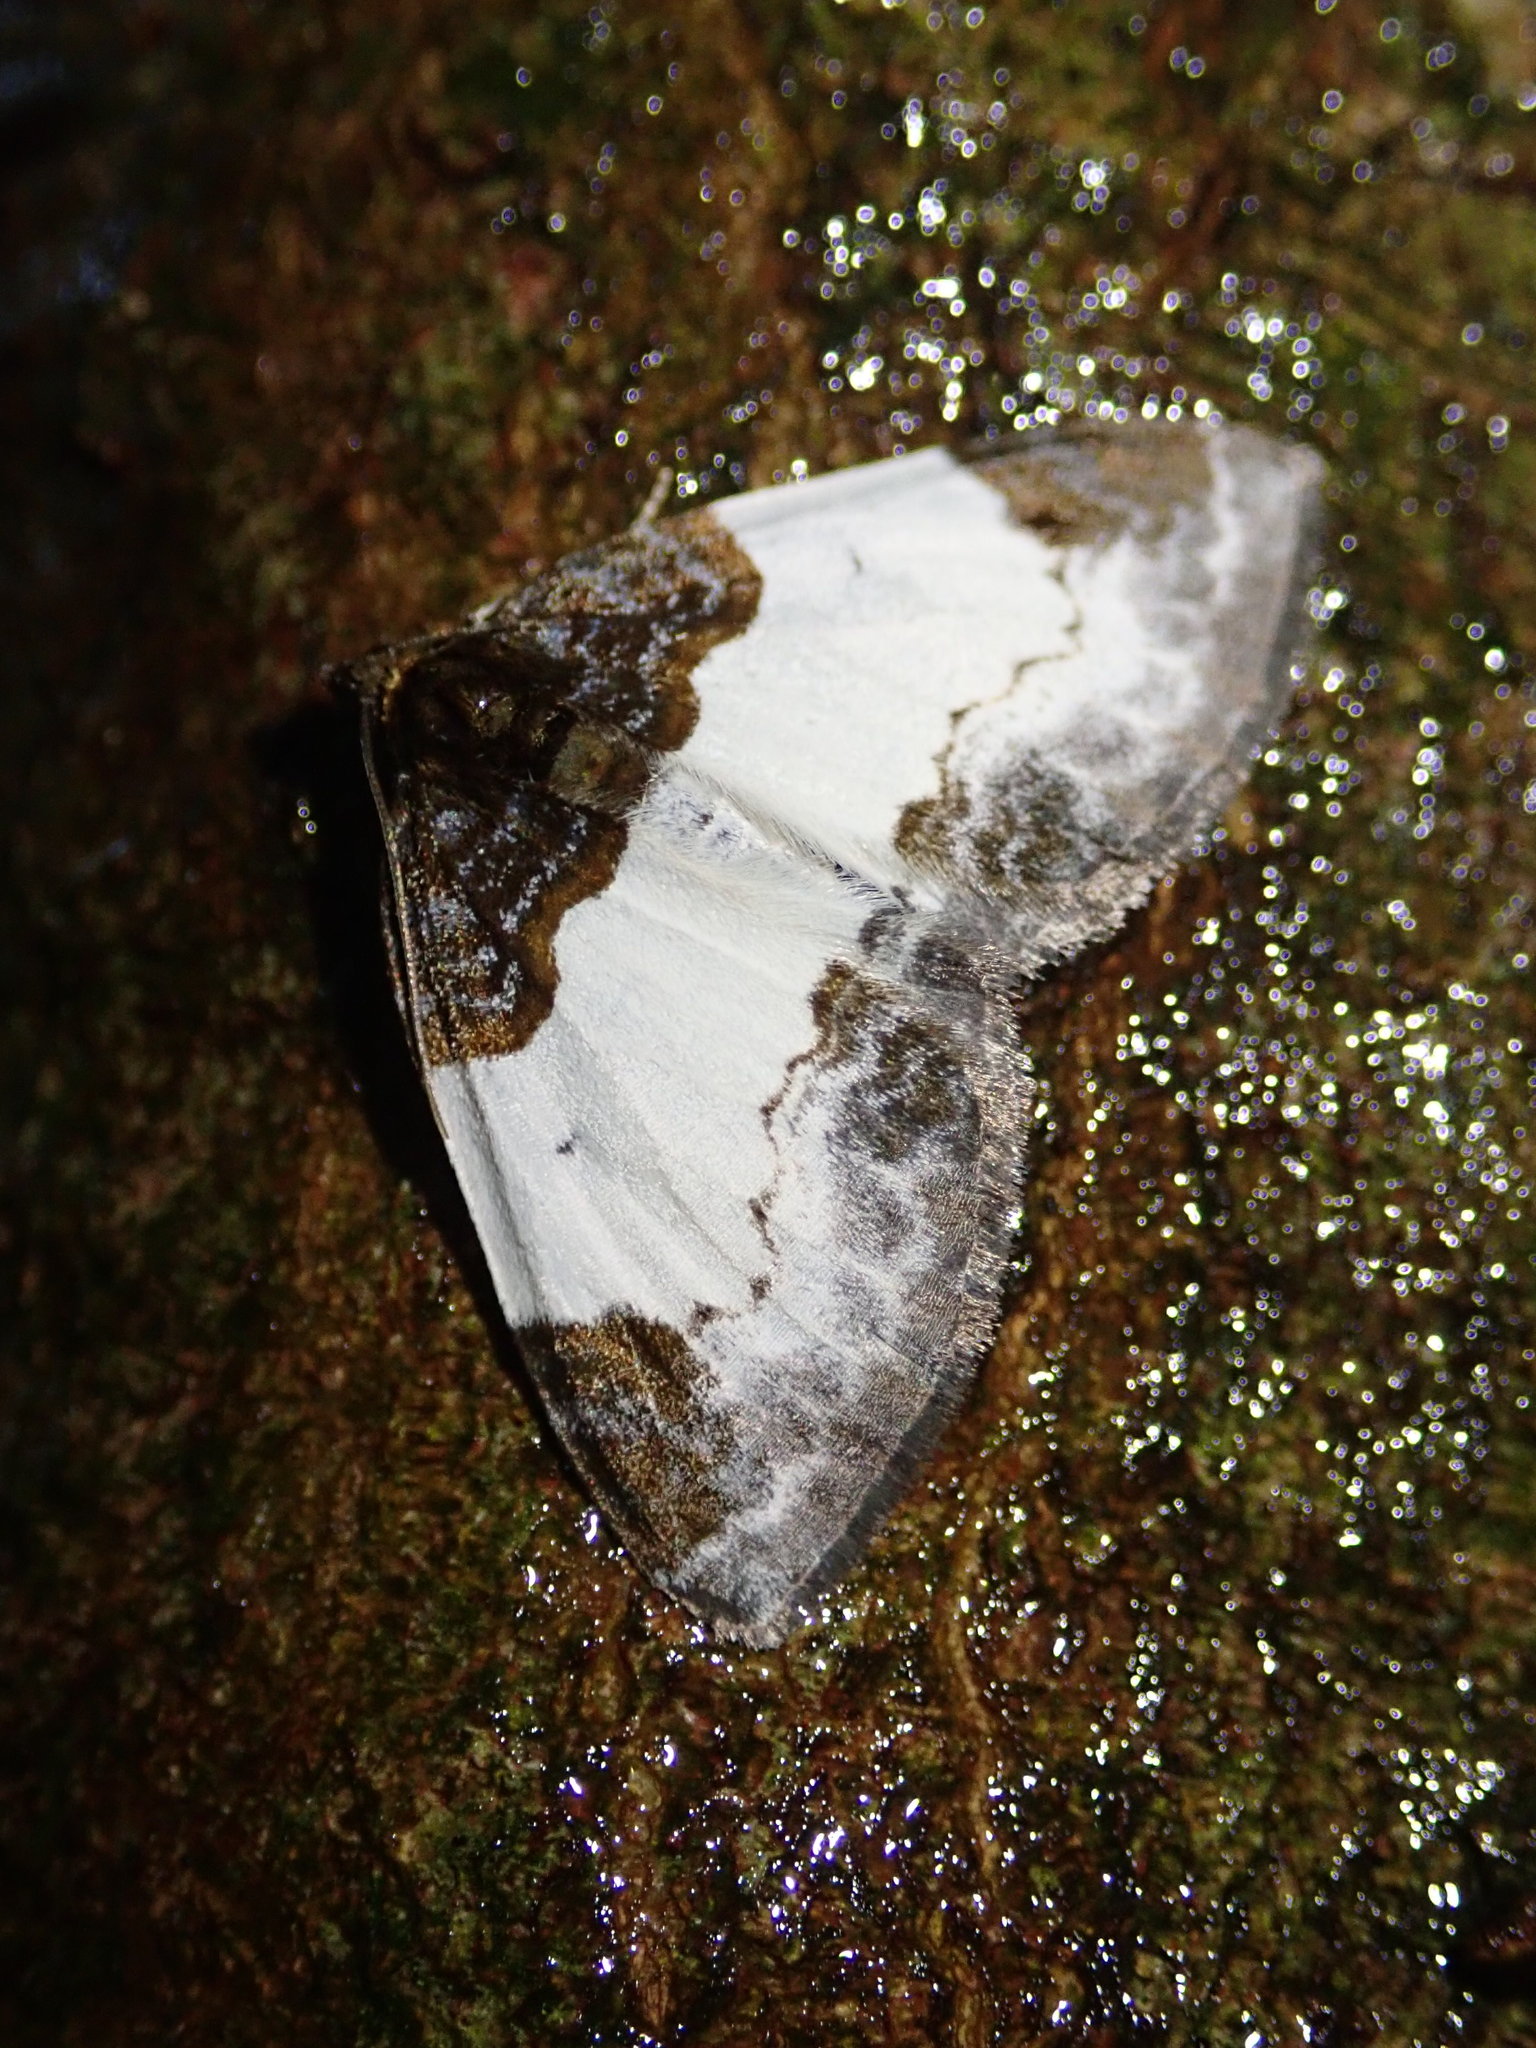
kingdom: Animalia
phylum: Arthropoda
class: Insecta
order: Lepidoptera
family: Geometridae
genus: Mesoleuca
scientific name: Mesoleuca albicillata
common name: Beautiful carpet
